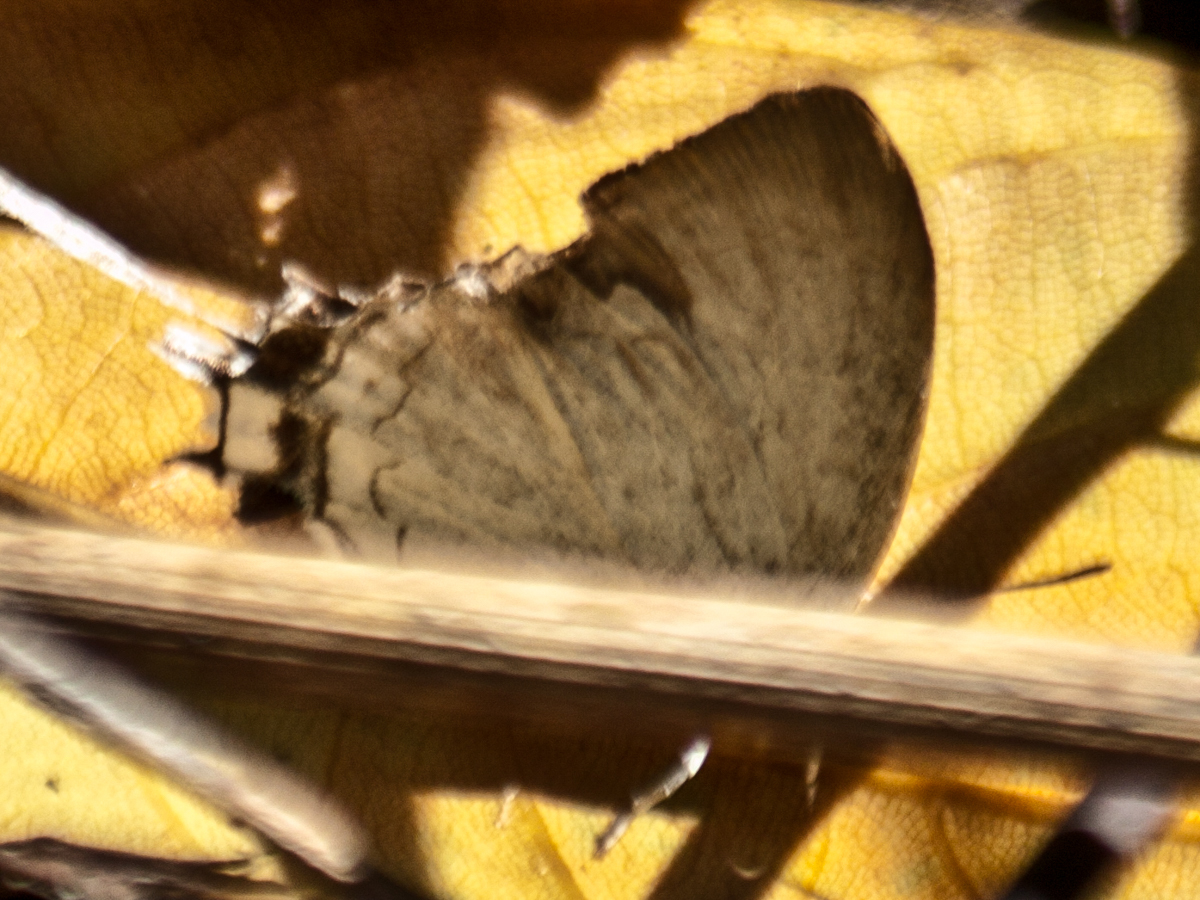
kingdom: Animalia
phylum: Arthropoda
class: Insecta
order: Lepidoptera
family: Lycaenidae
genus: Cheritra
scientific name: Cheritra freja
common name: Common imperial
